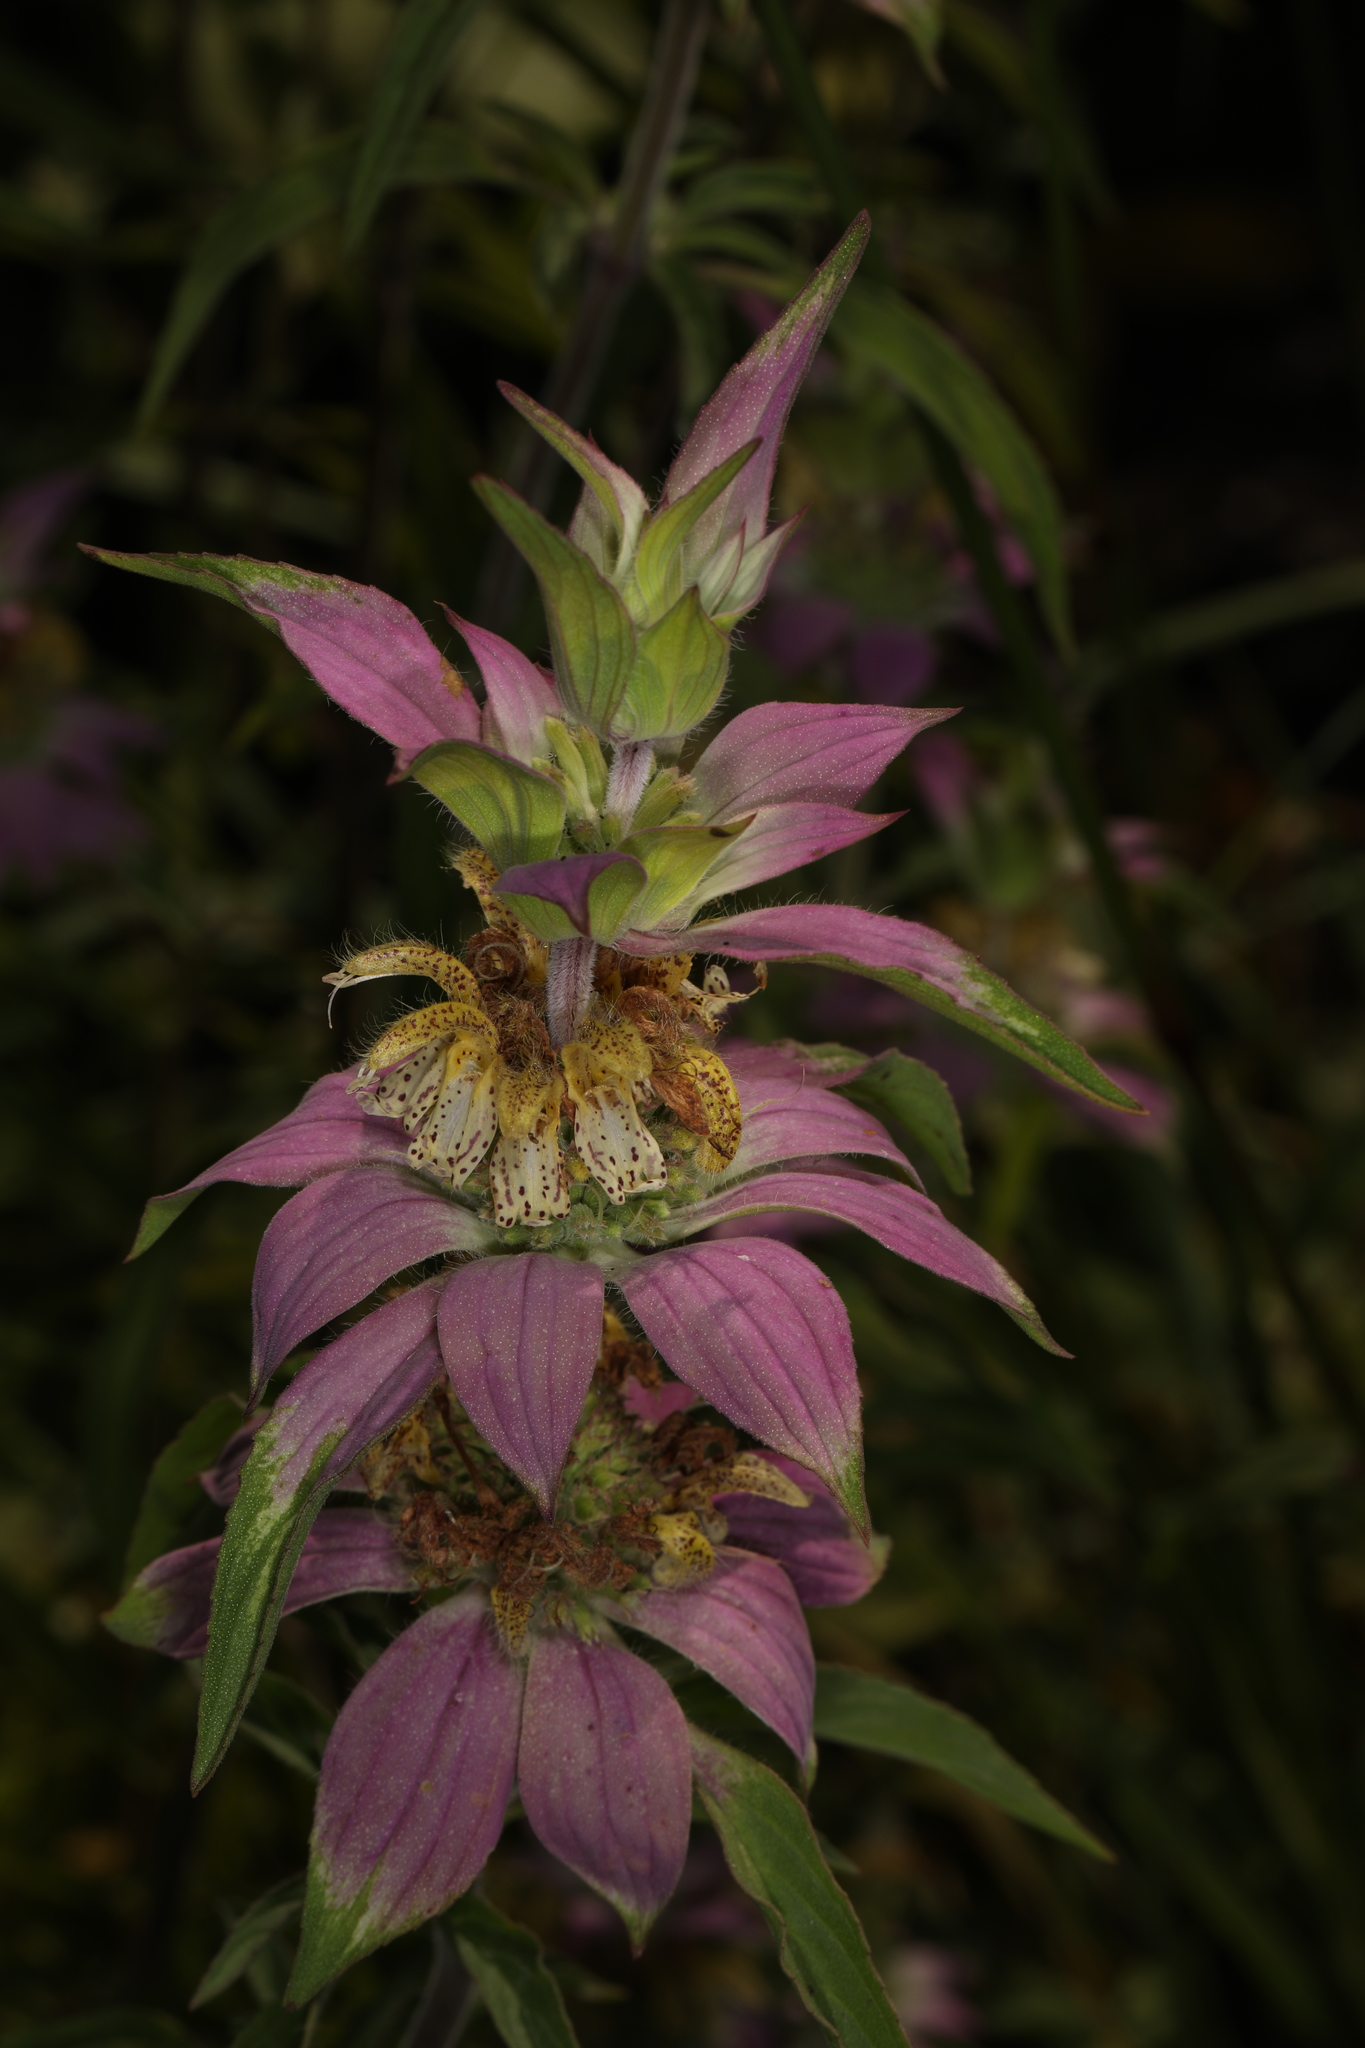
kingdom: Plantae
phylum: Tracheophyta
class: Magnoliopsida
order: Lamiales
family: Lamiaceae
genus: Monarda
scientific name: Monarda punctata
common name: Dotted monarda
